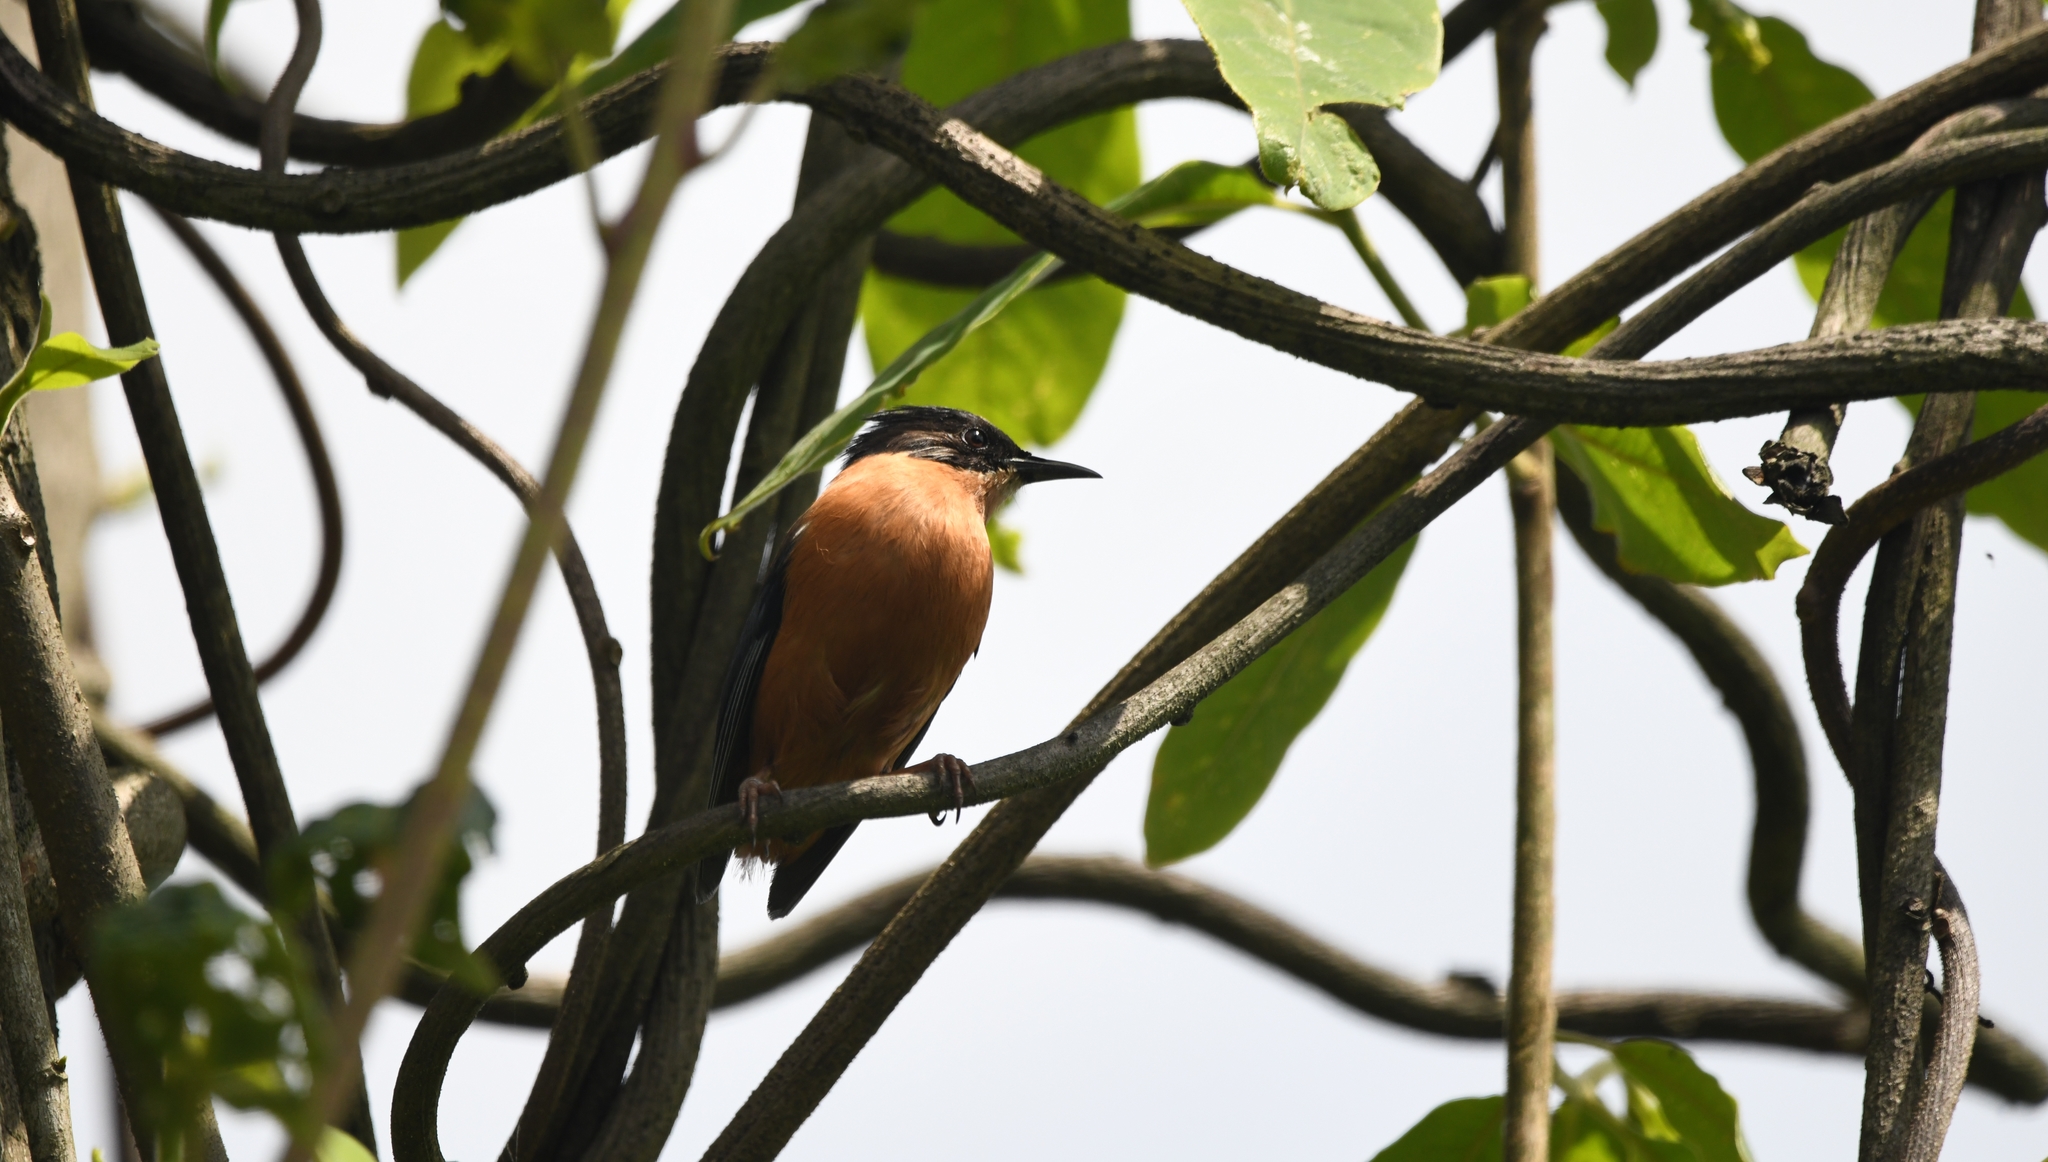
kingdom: Animalia
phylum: Chordata
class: Aves
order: Passeriformes
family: Leiothrichidae
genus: Heterophasia
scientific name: Heterophasia capistrata
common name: Rufous sibia
